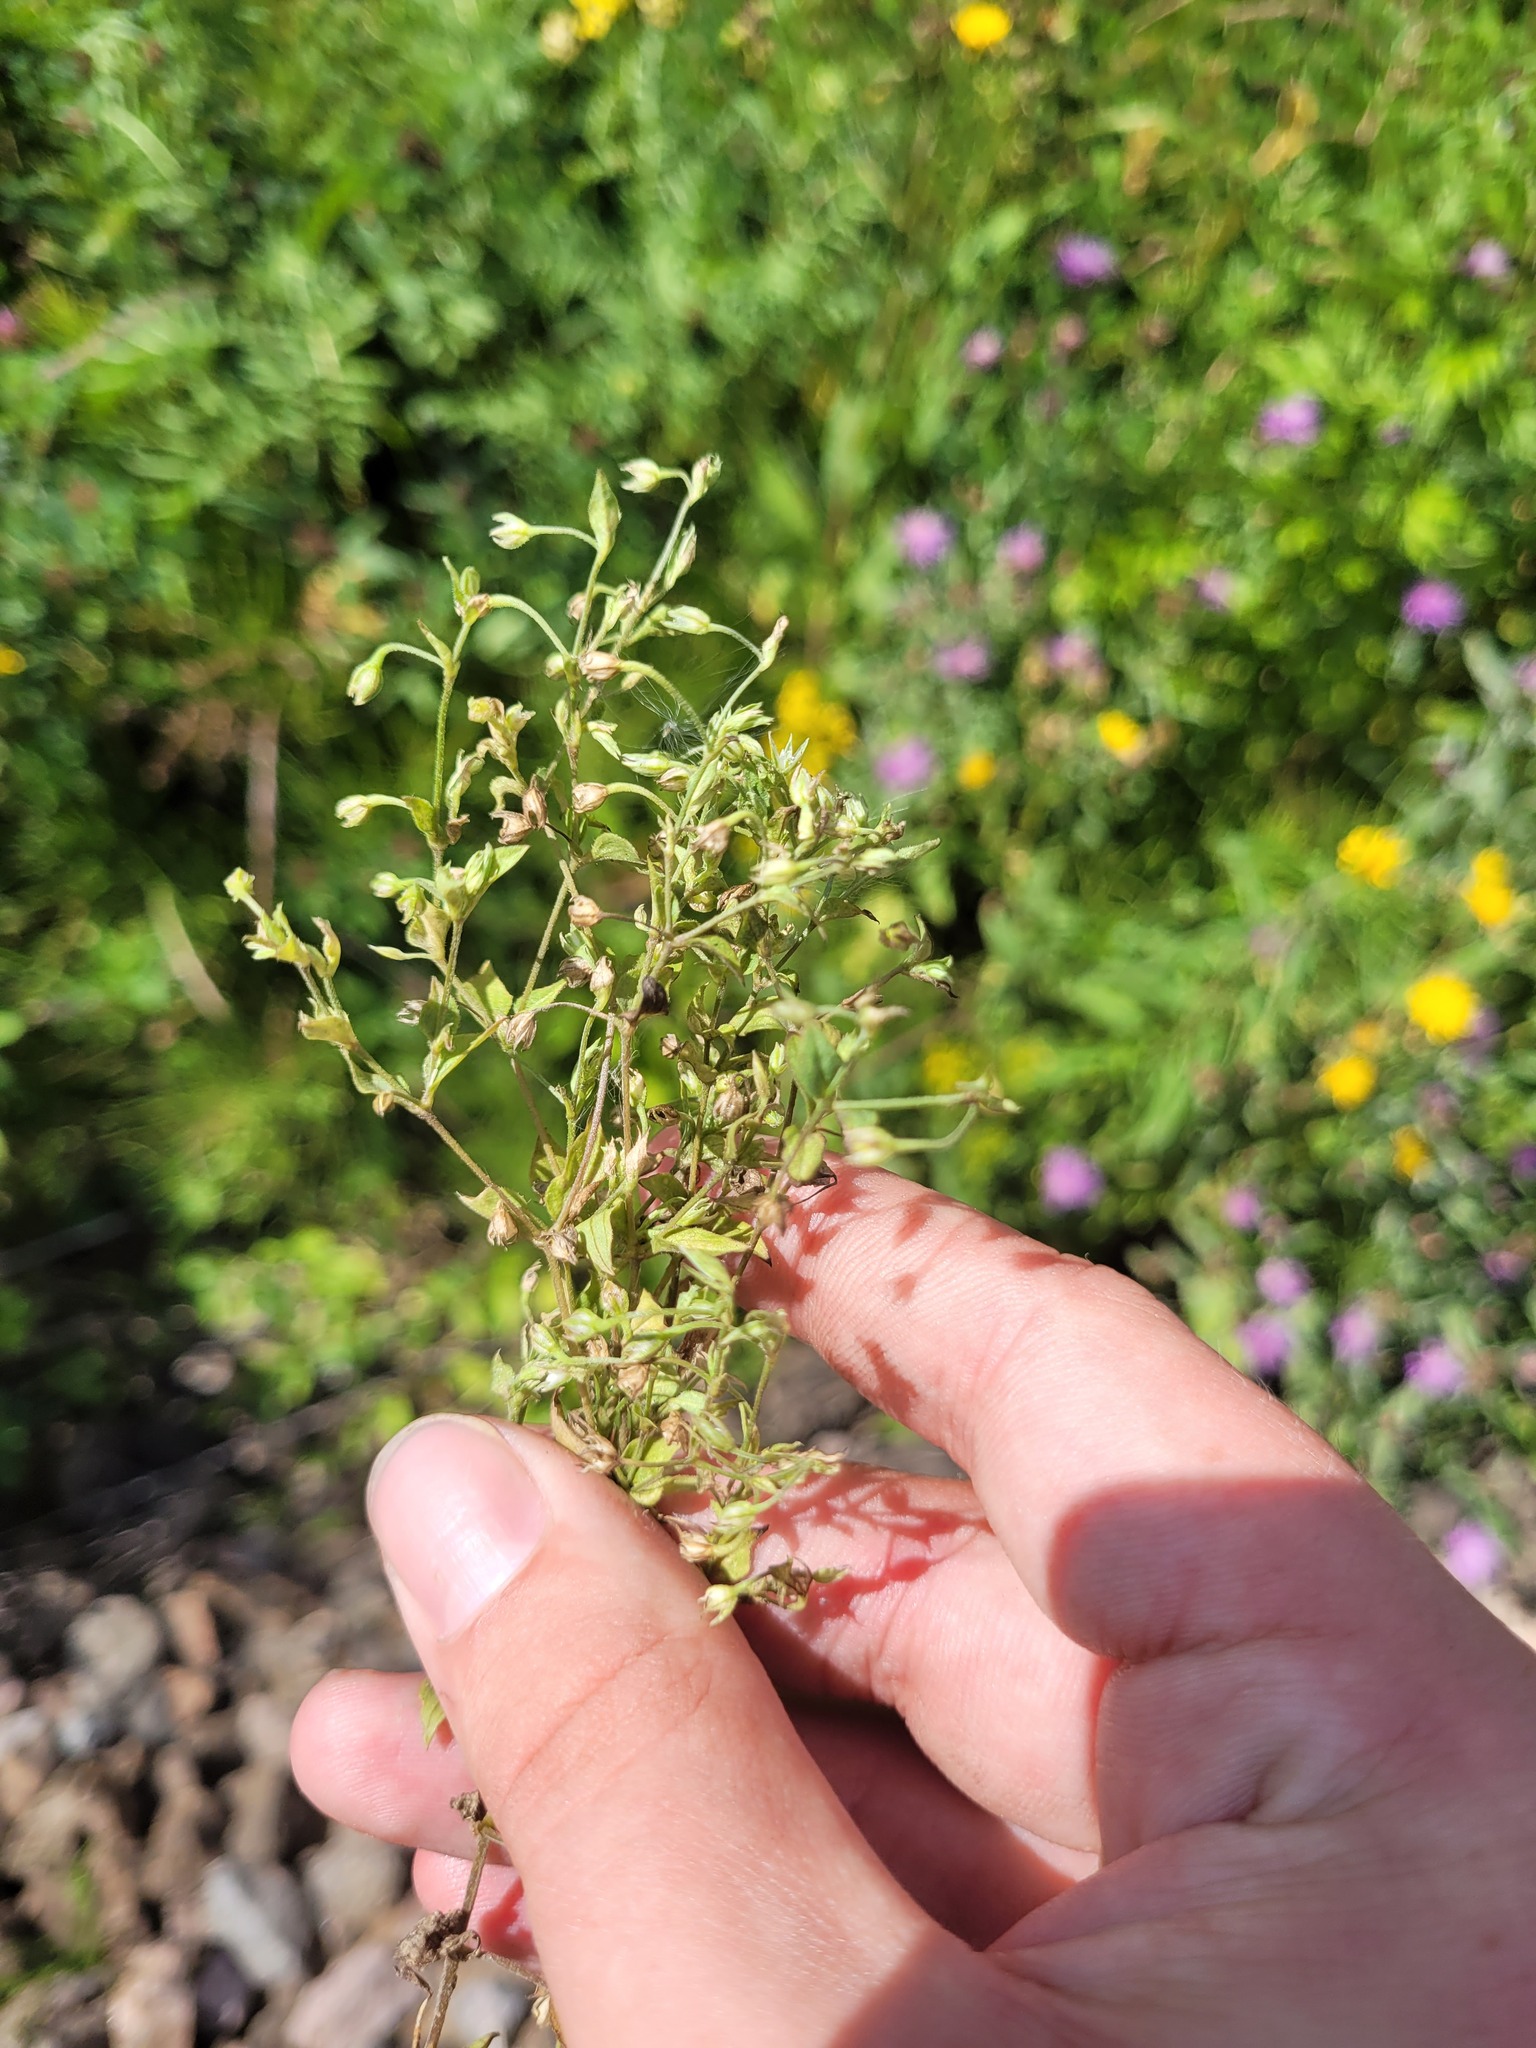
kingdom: Plantae
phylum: Tracheophyta
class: Magnoliopsida
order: Caryophyllales
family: Caryophyllaceae
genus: Moehringia
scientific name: Moehringia trinervia
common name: Three-nerved sandwort
